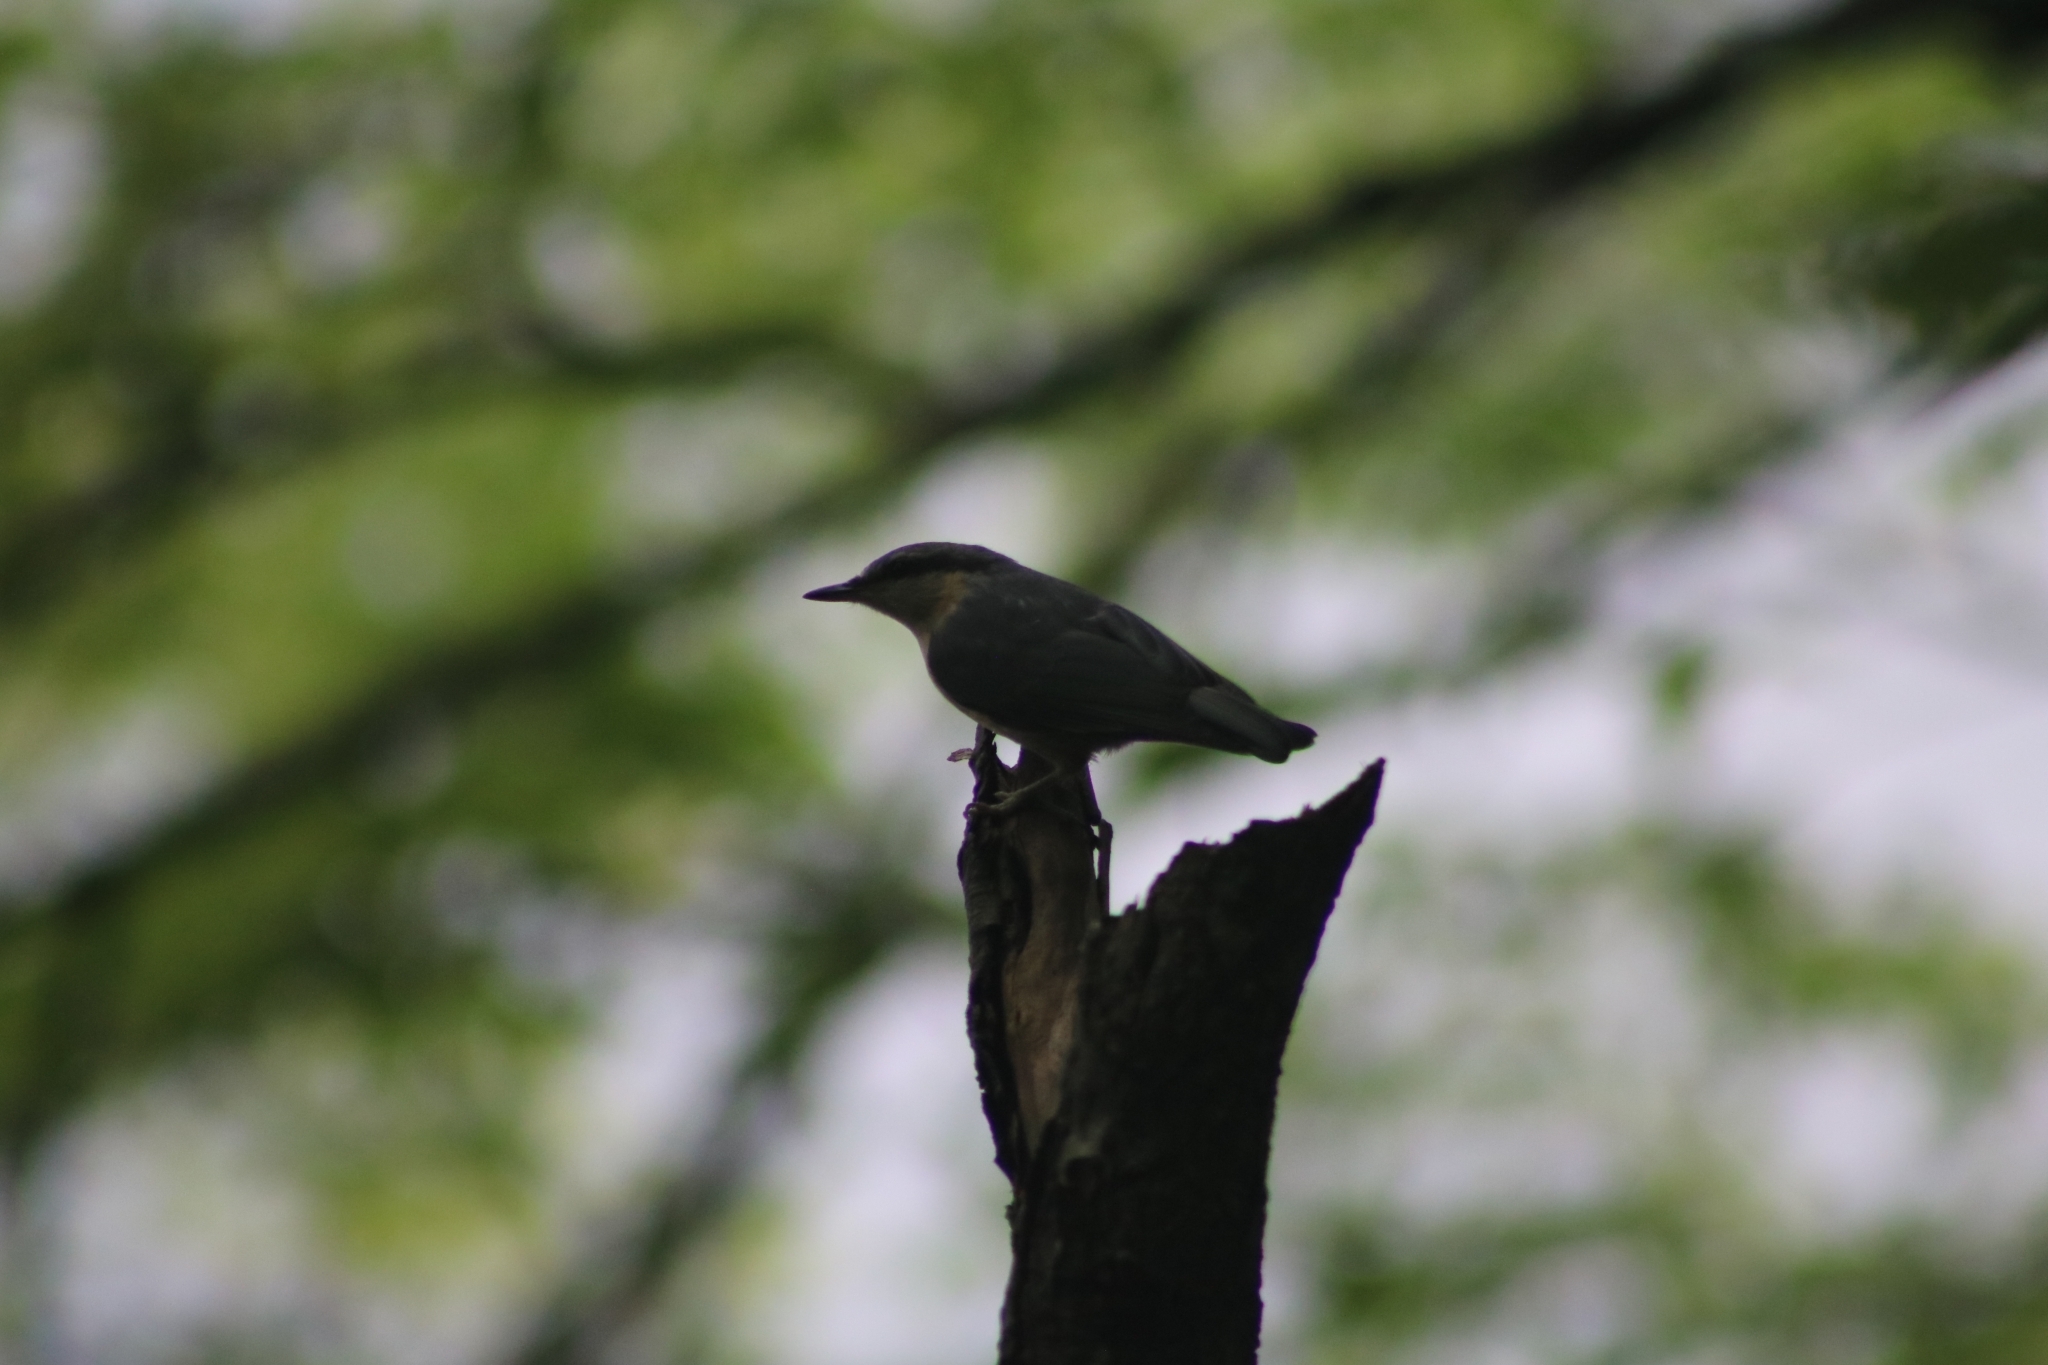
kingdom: Animalia
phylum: Chordata
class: Aves
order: Passeriformes
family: Sittidae
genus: Sitta
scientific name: Sitta europaea
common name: Eurasian nuthatch
